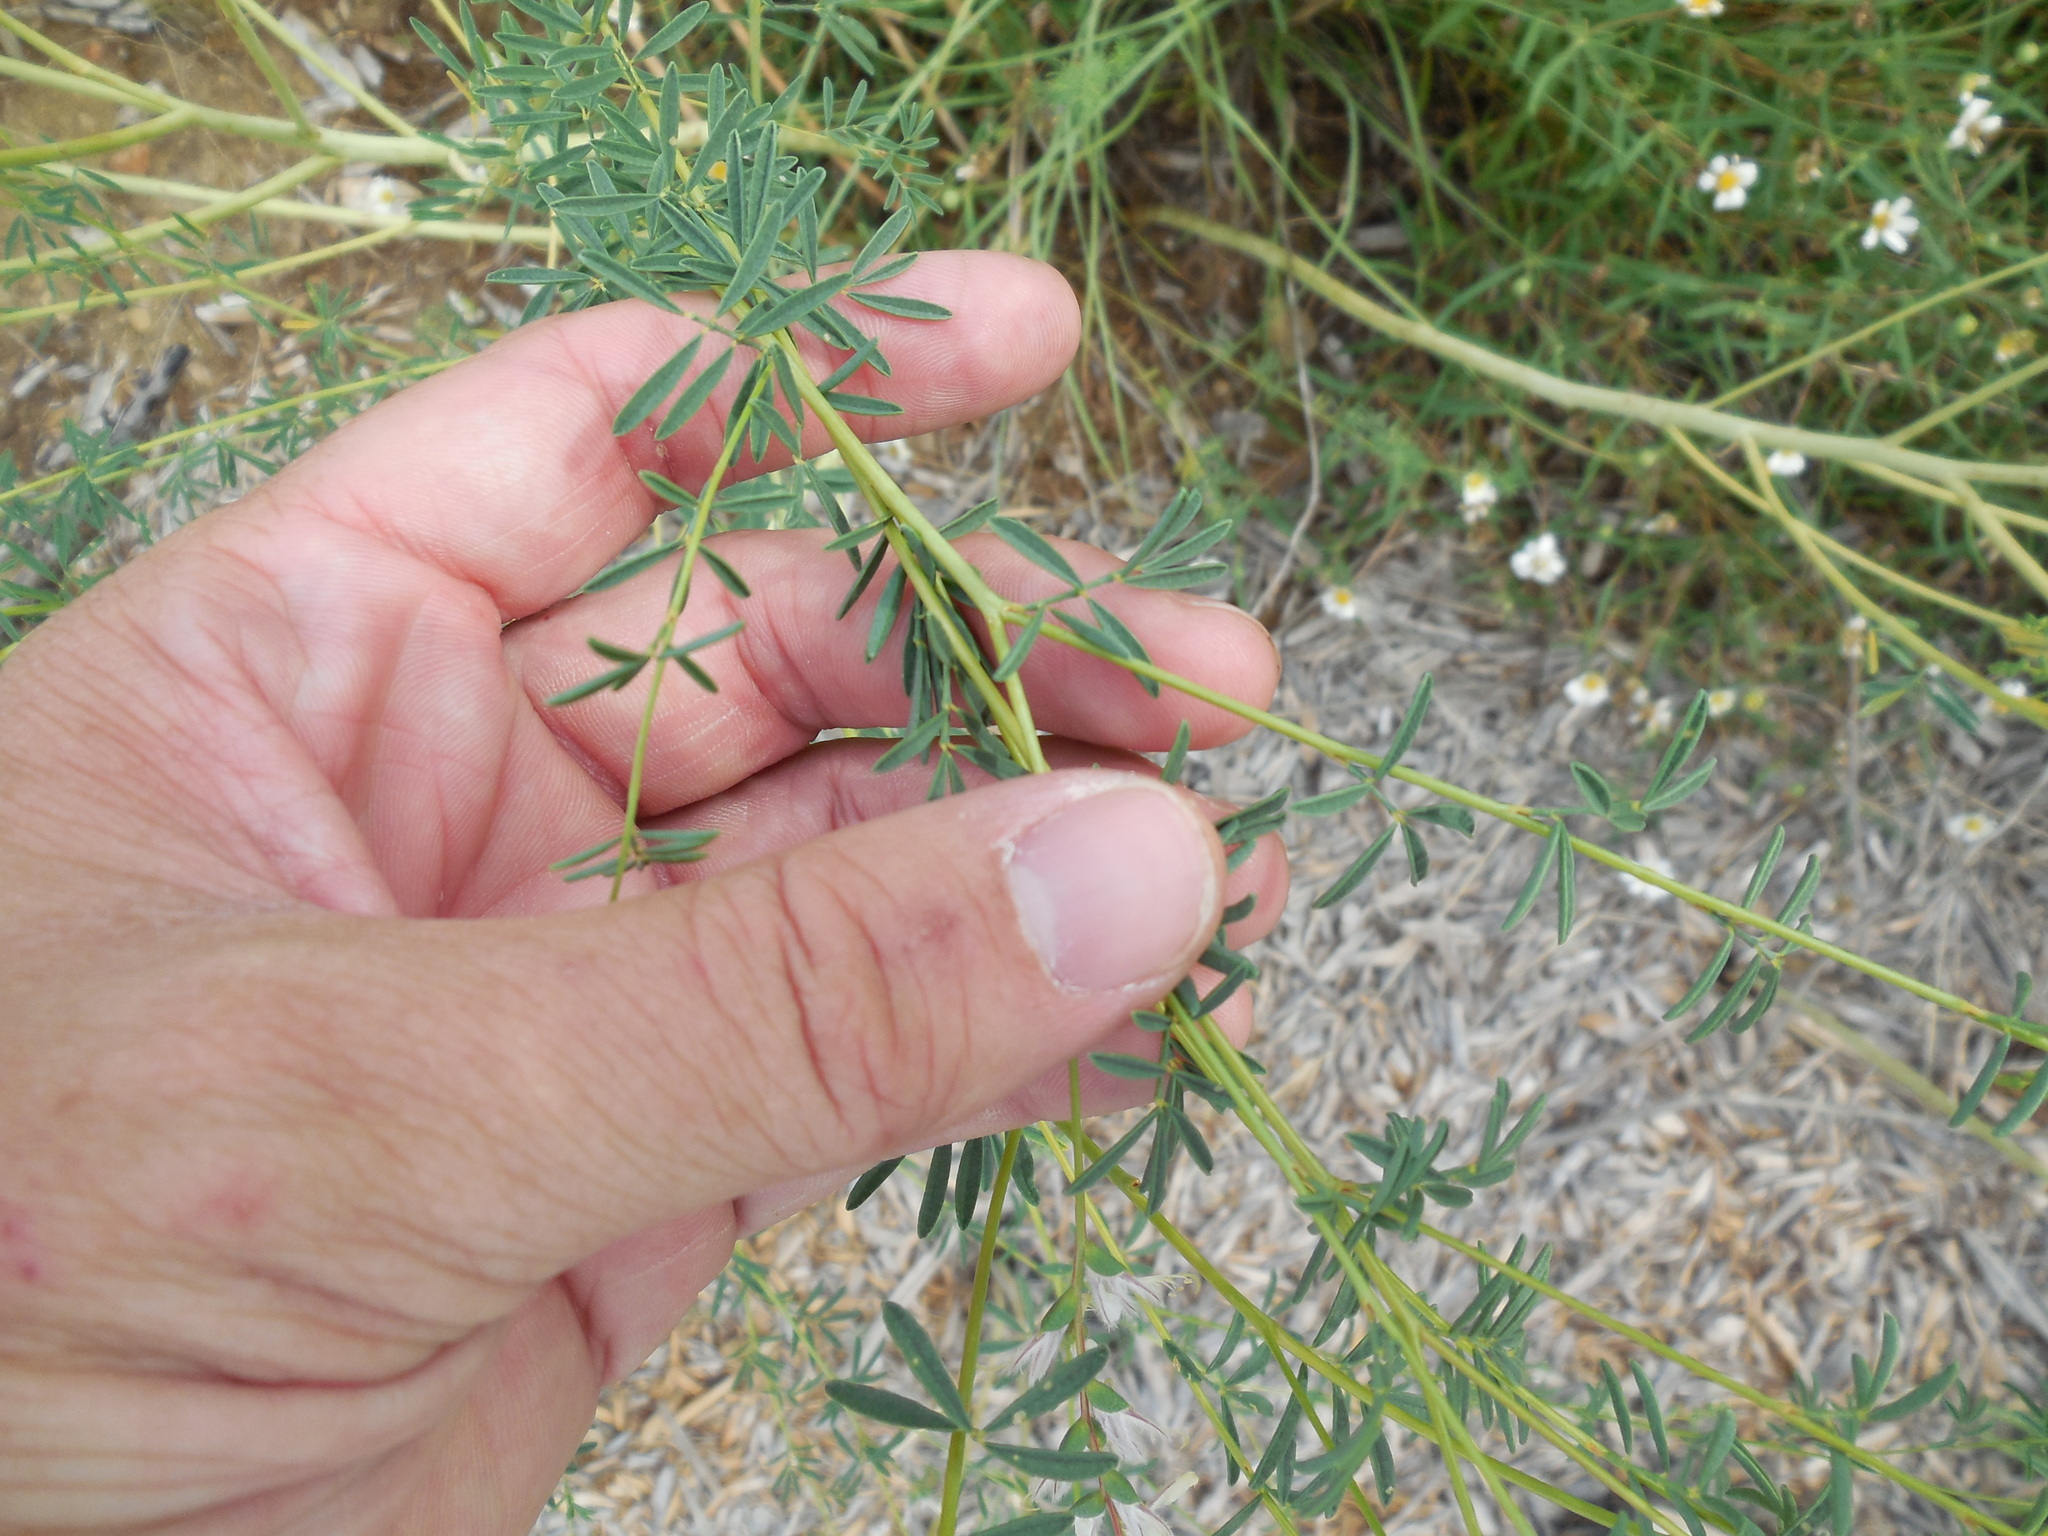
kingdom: Plantae
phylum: Tracheophyta
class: Magnoliopsida
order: Fabales
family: Fabaceae
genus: Dalea
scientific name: Dalea enneandra
